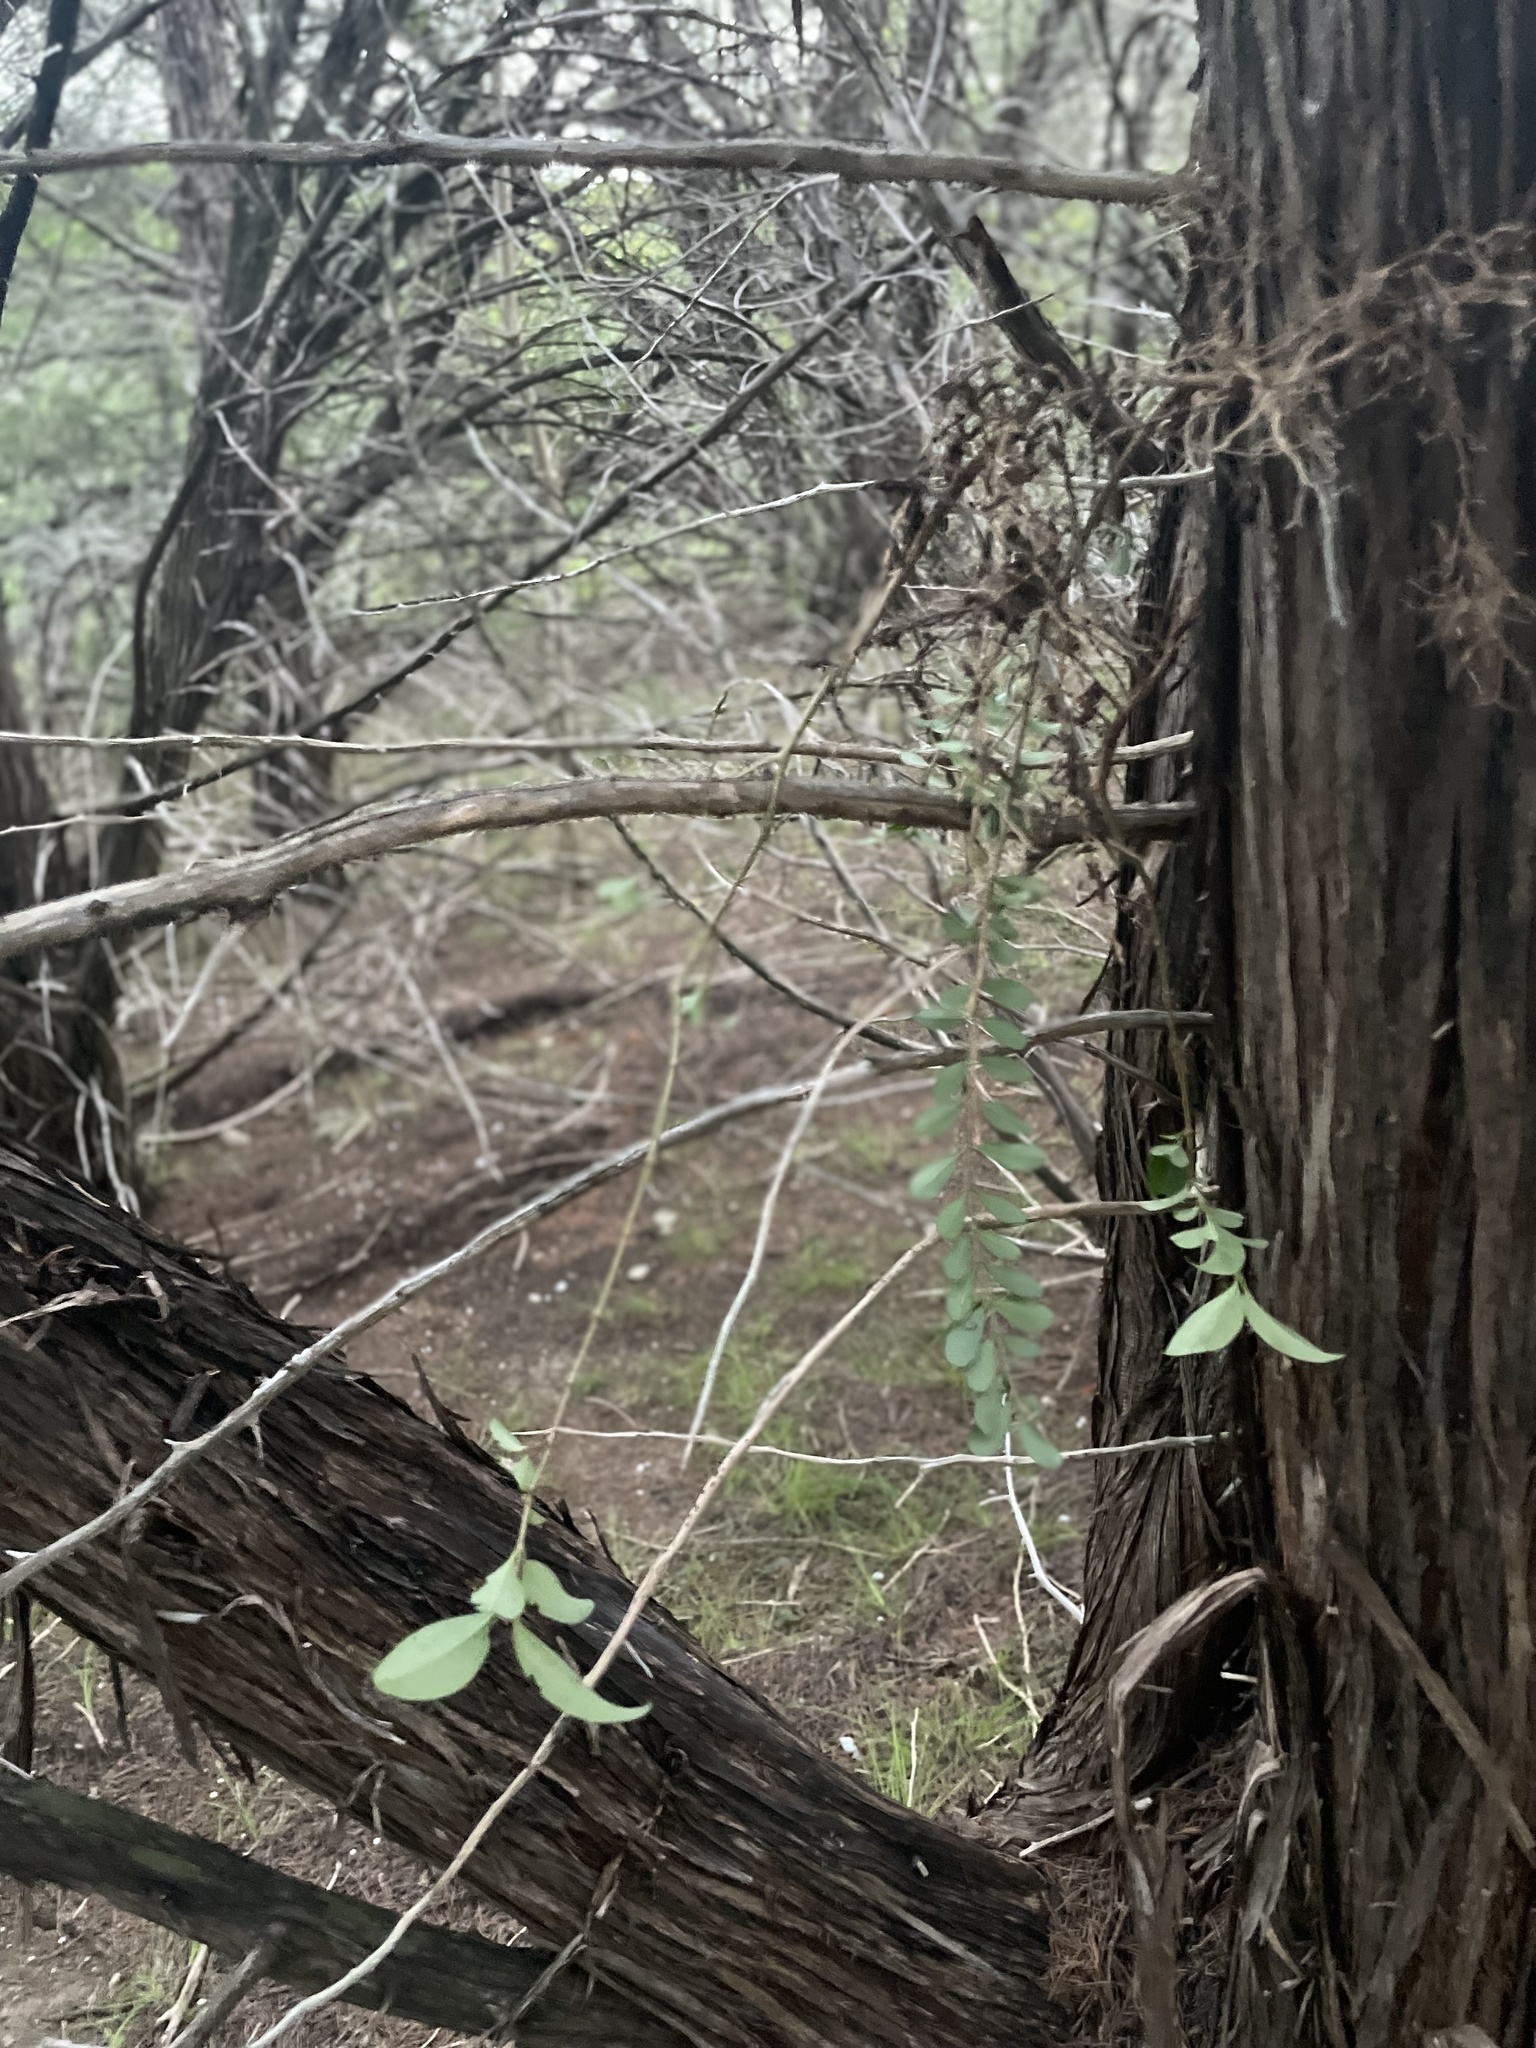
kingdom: Plantae
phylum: Tracheophyta
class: Magnoliopsida
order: Lamiales
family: Oleaceae
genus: Ligustrum
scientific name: Ligustrum lucidum
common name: Glossy privet
